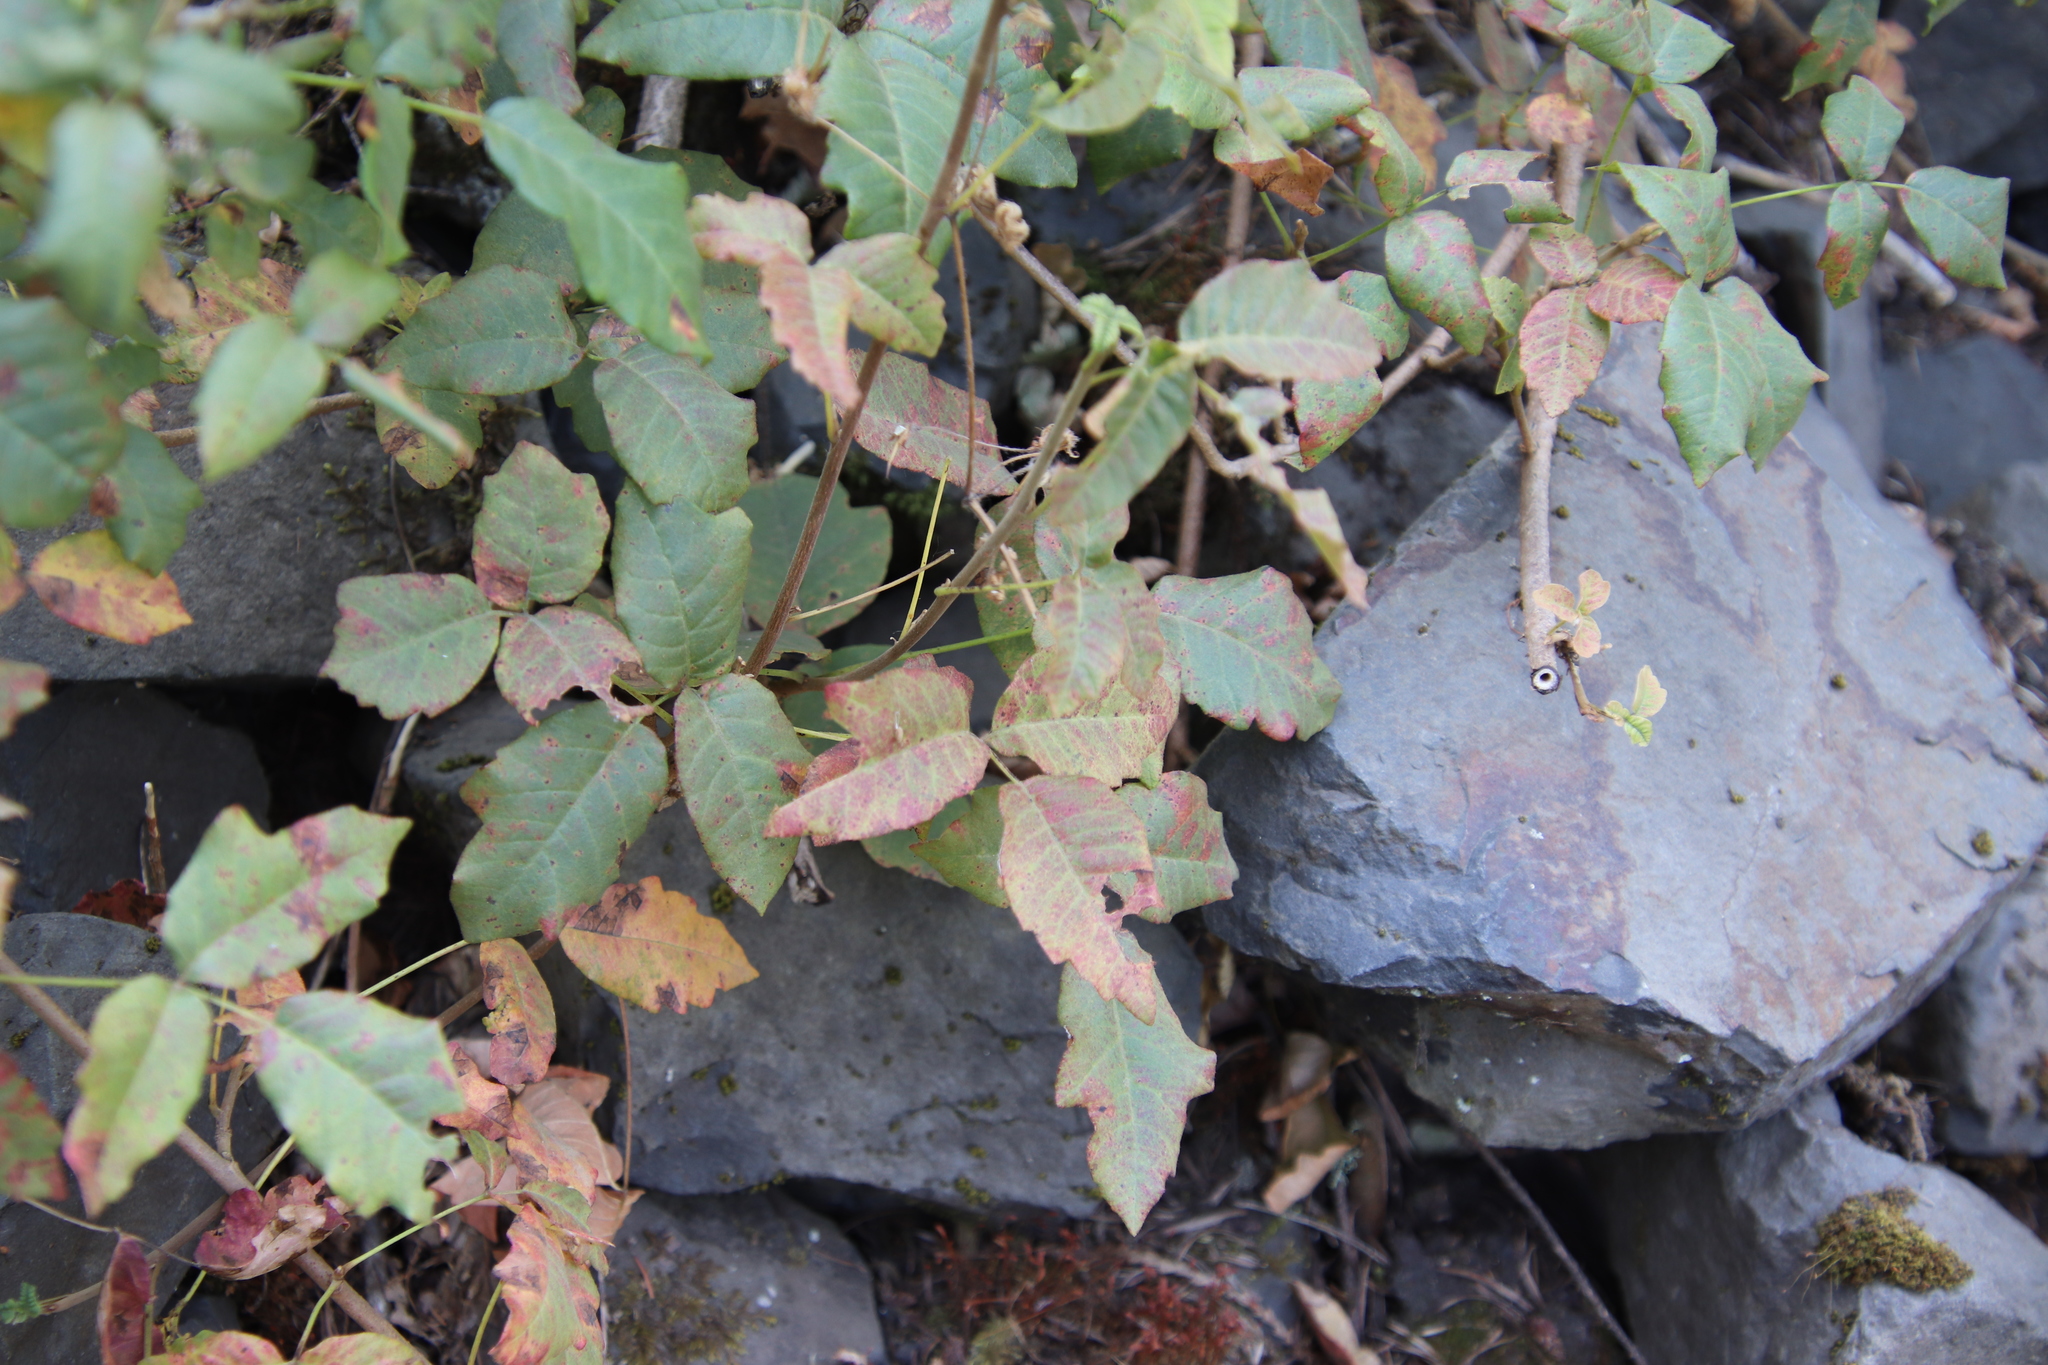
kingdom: Plantae
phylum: Tracheophyta
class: Magnoliopsida
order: Sapindales
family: Anacardiaceae
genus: Toxicodendron
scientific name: Toxicodendron diversilobum
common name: Pacific poison-oak
